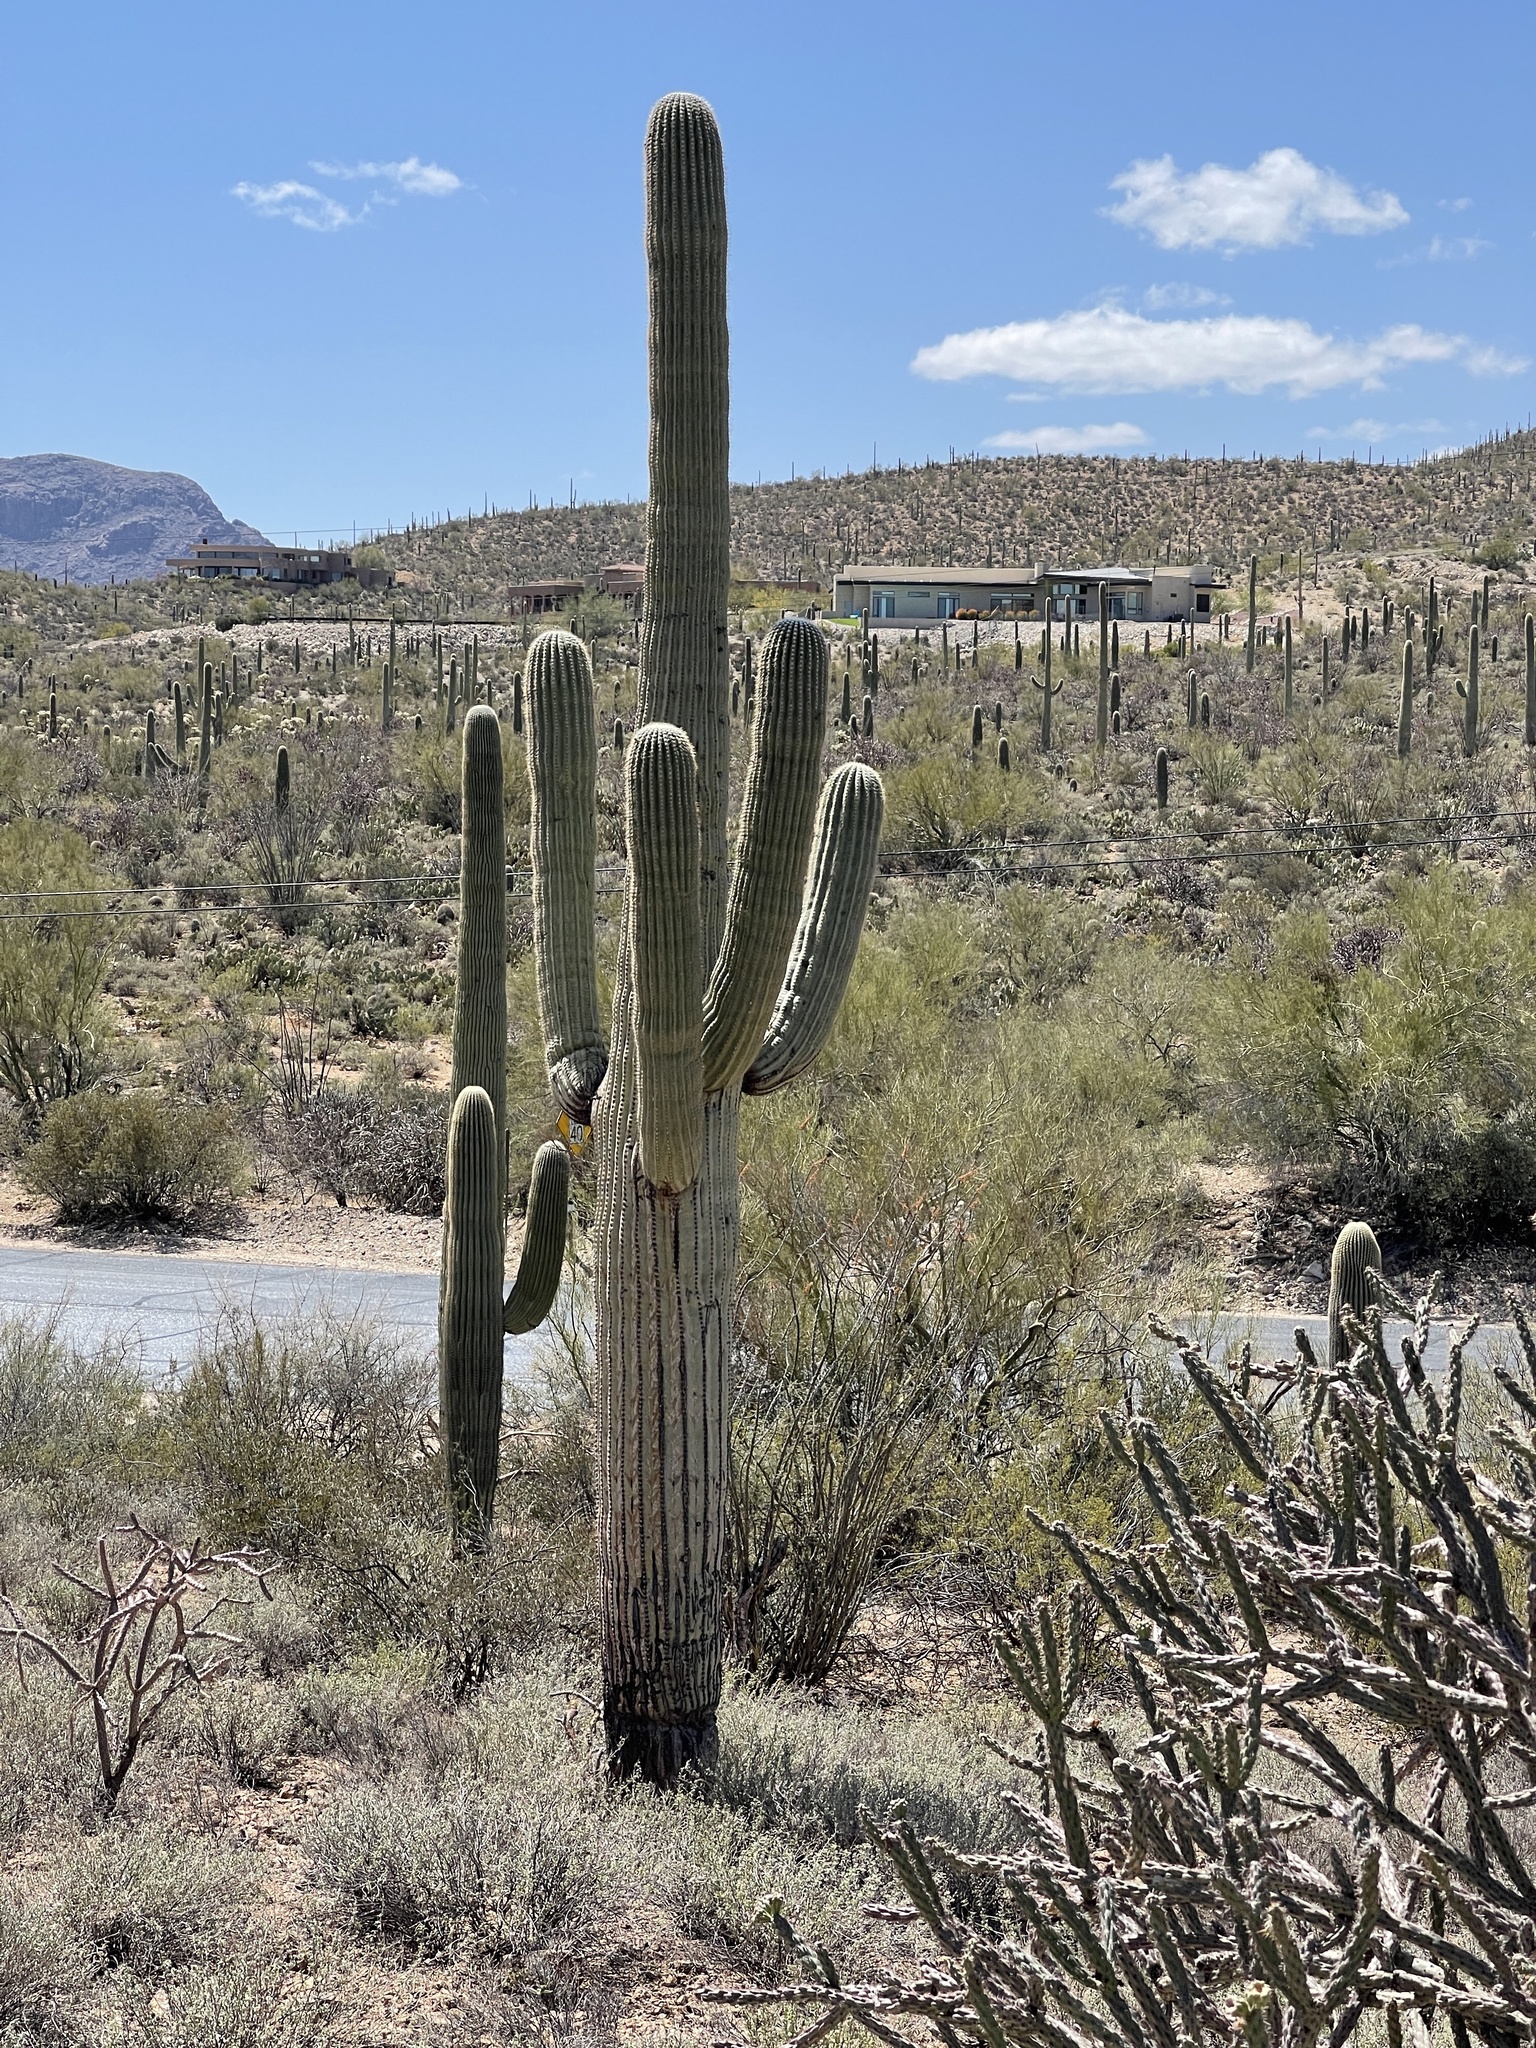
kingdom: Plantae
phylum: Tracheophyta
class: Magnoliopsida
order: Caryophyllales
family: Cactaceae
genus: Carnegiea
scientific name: Carnegiea gigantea
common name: Saguaro
